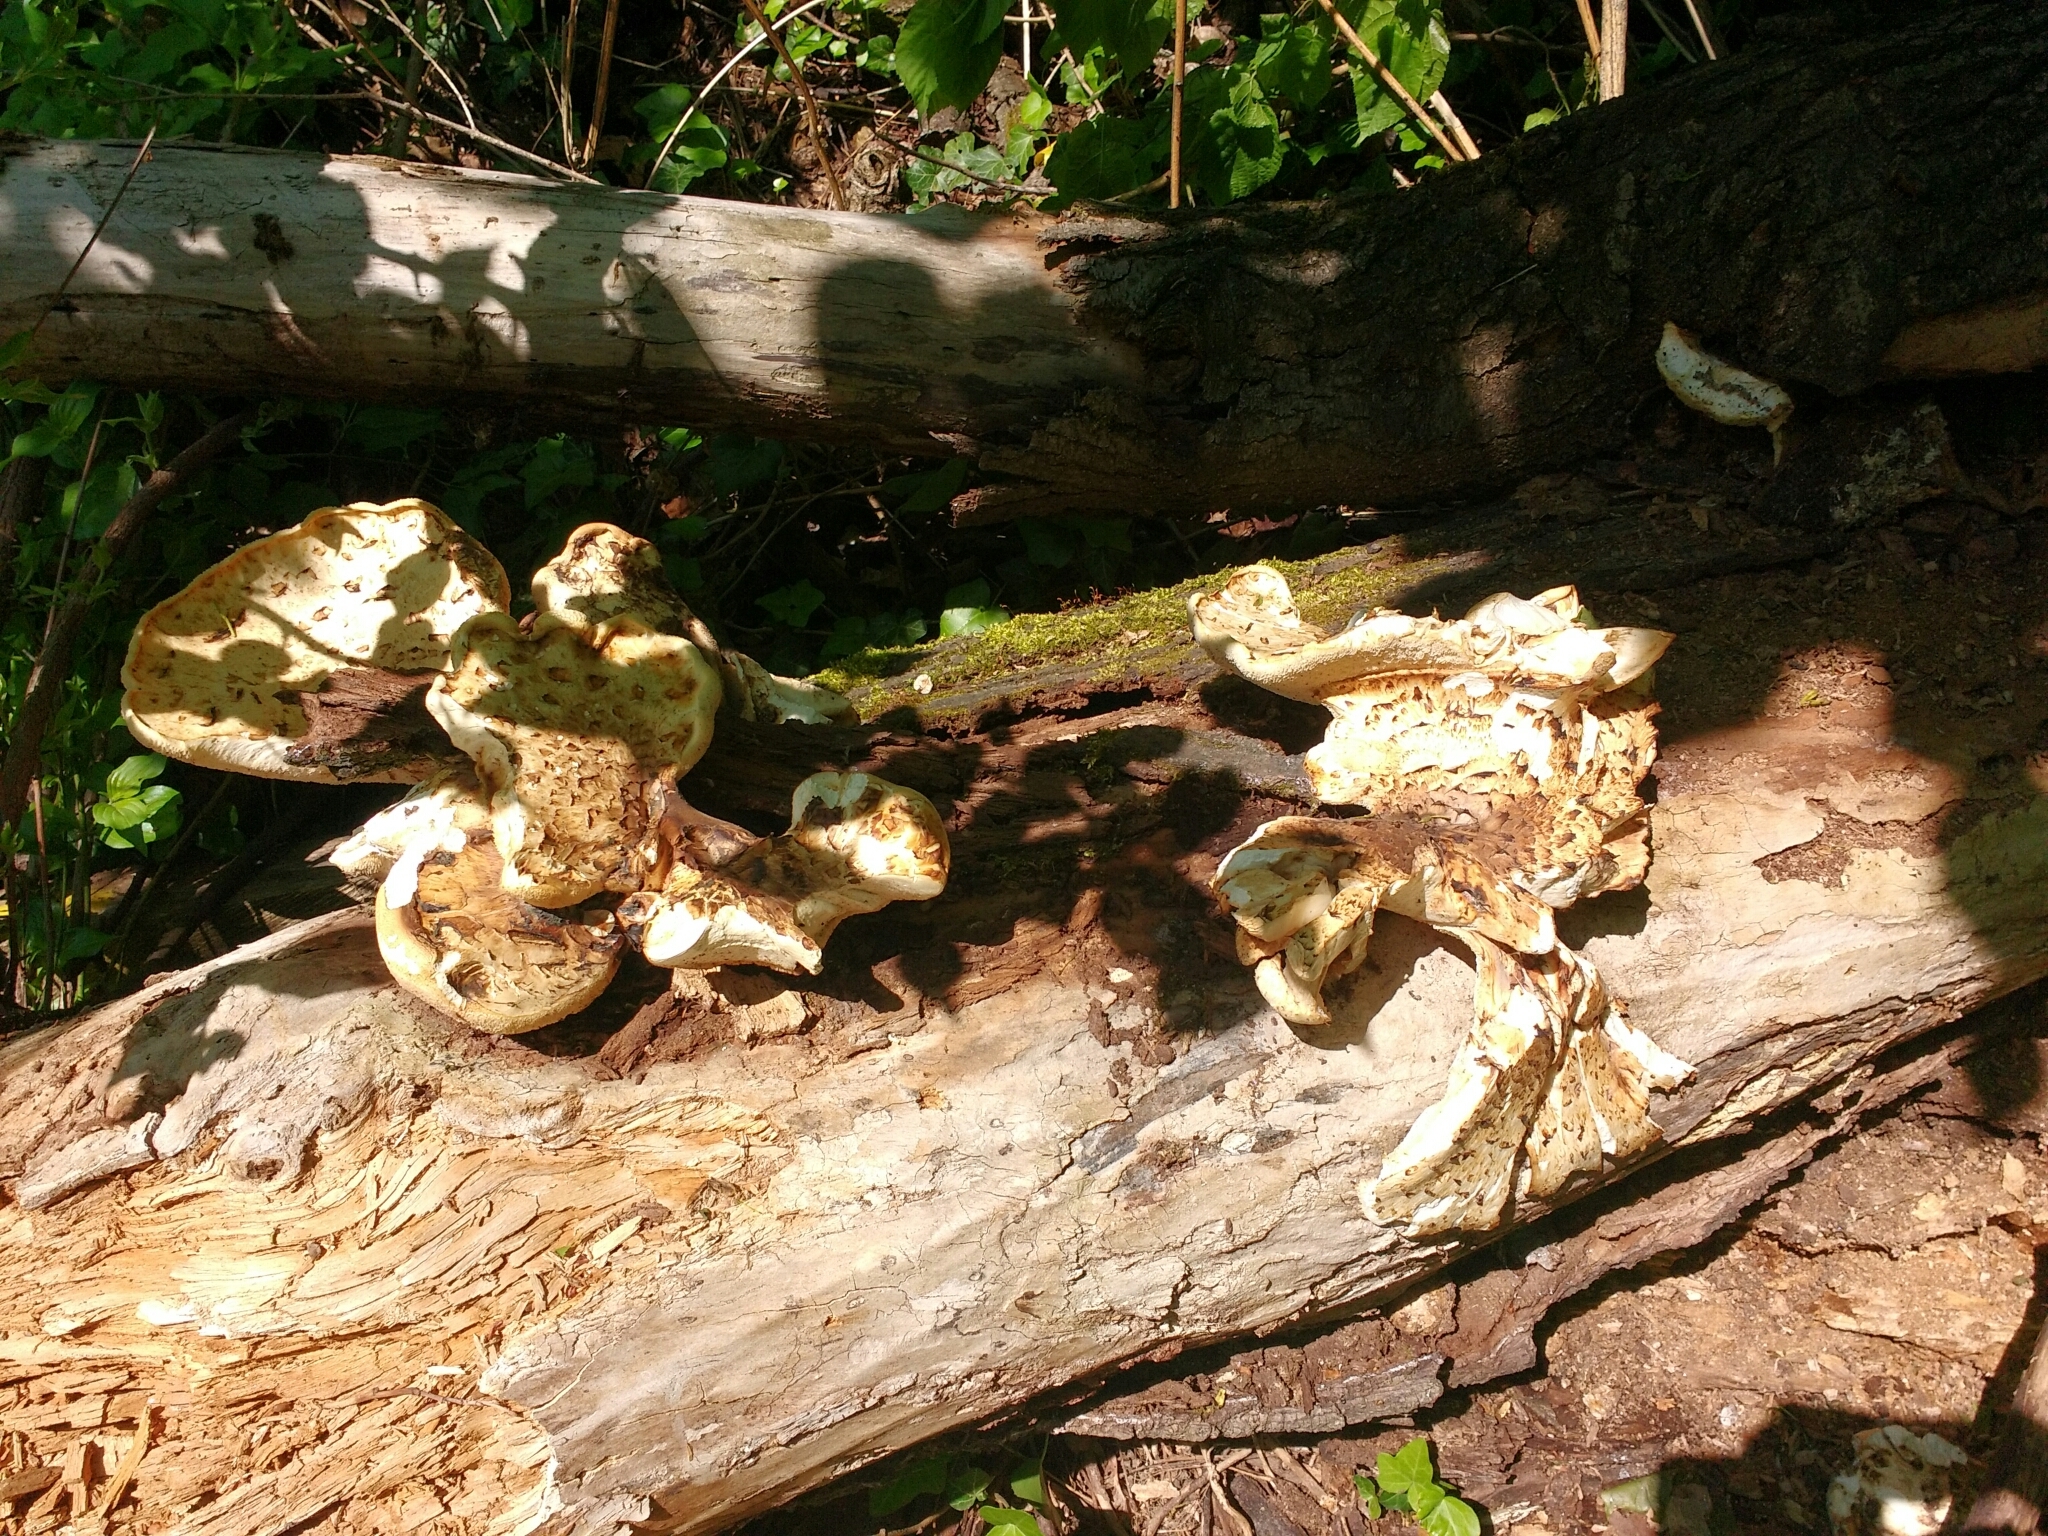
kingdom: Fungi
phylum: Basidiomycota
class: Agaricomycetes
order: Polyporales
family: Polyporaceae
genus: Cerioporus
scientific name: Cerioporus squamosus
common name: Dryad's saddle
